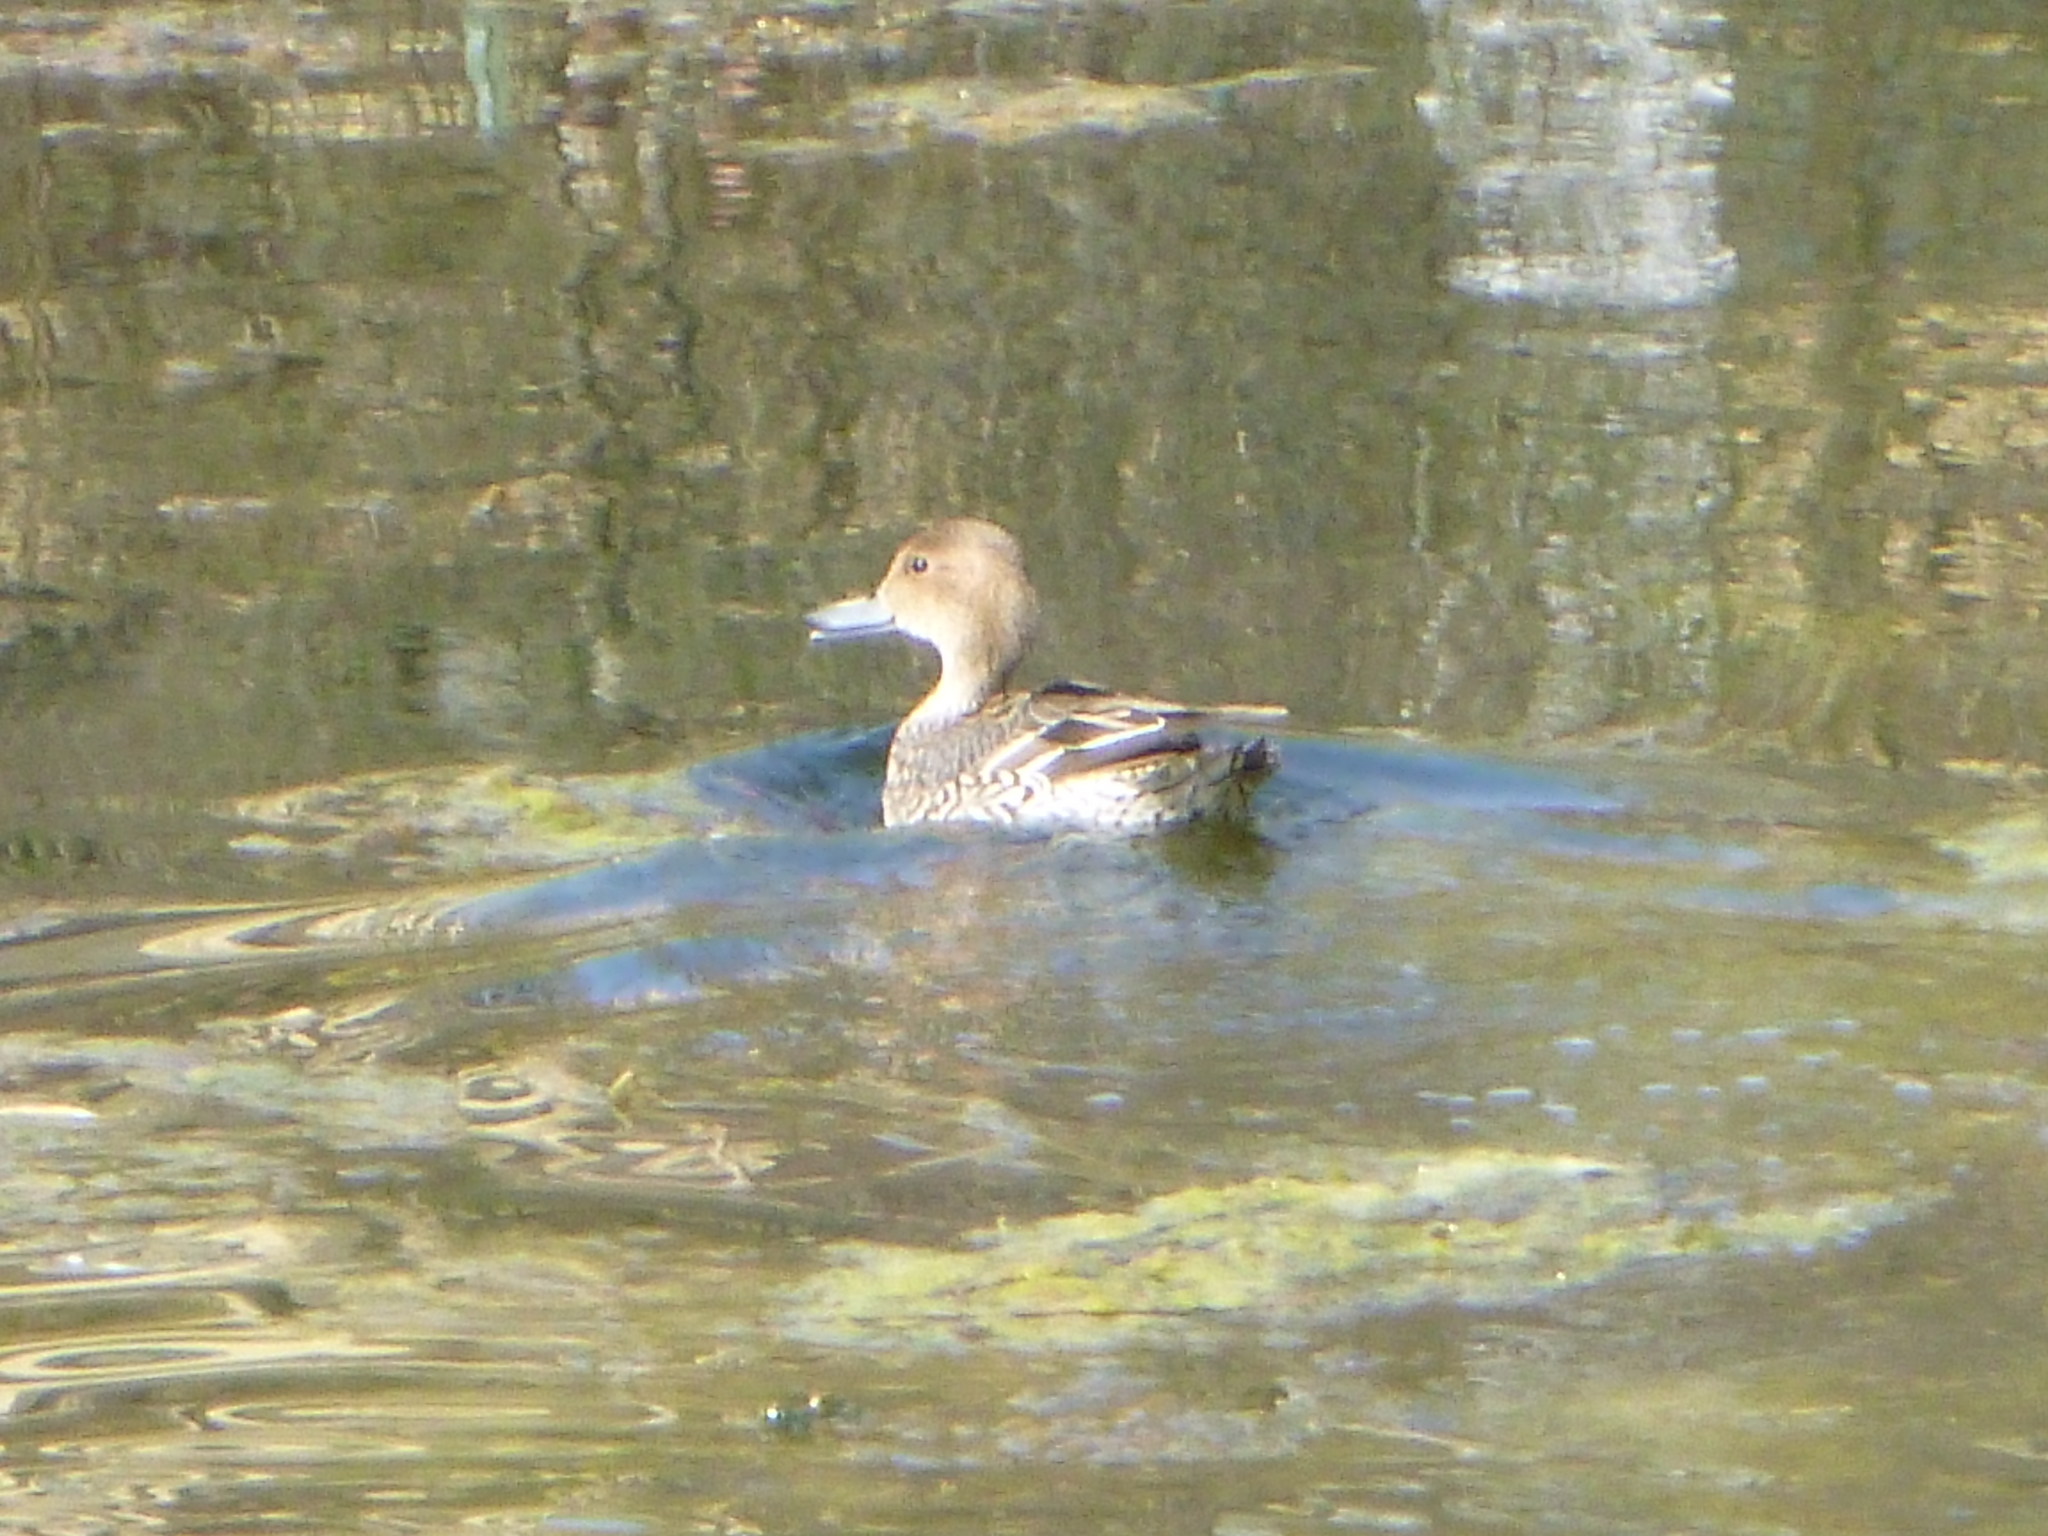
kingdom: Animalia
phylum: Chordata
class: Aves
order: Anseriformes
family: Anatidae
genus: Anas
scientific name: Anas acuta
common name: Northern pintail
